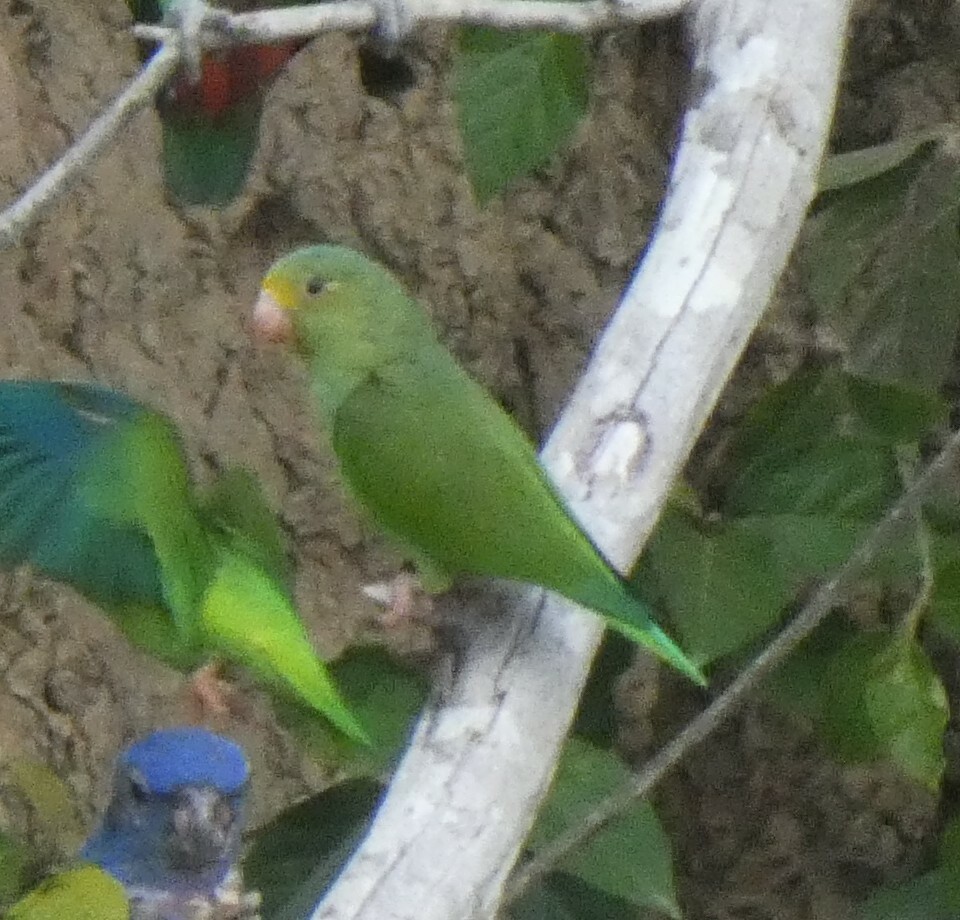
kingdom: Animalia
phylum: Chordata
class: Aves
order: Psittaciformes
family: Psittacidae
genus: Brotogeris
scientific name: Brotogeris cyanoptera
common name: Cobalt-winged parakeet
